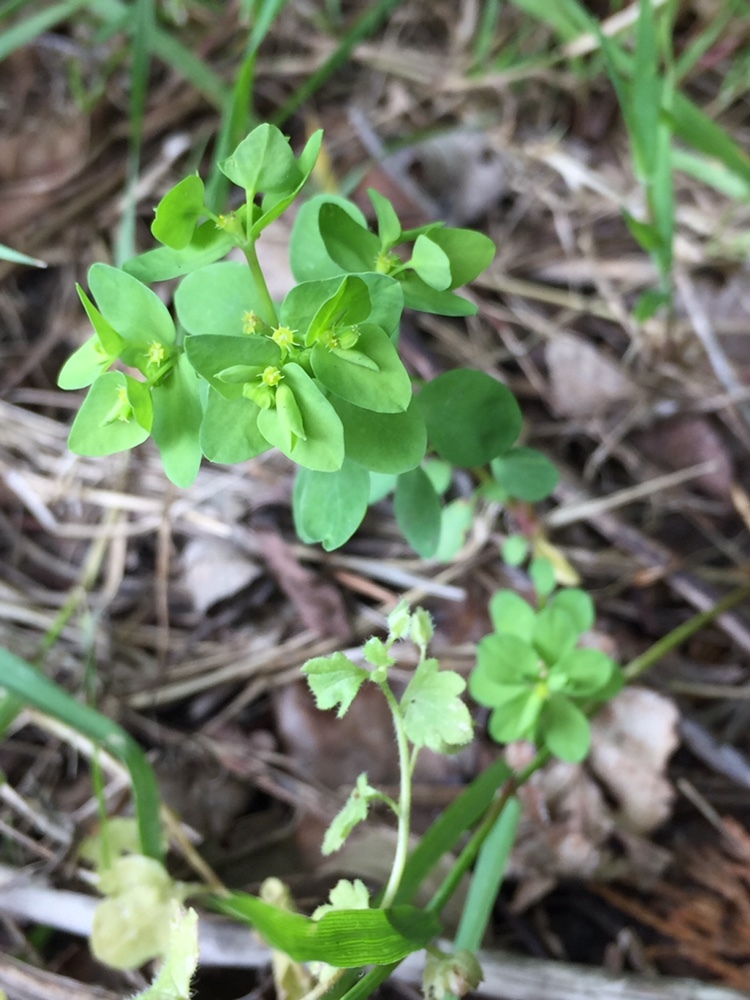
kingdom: Plantae
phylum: Tracheophyta
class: Magnoliopsida
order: Malpighiales
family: Euphorbiaceae
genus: Euphorbia
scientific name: Euphorbia peplus
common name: Petty spurge
